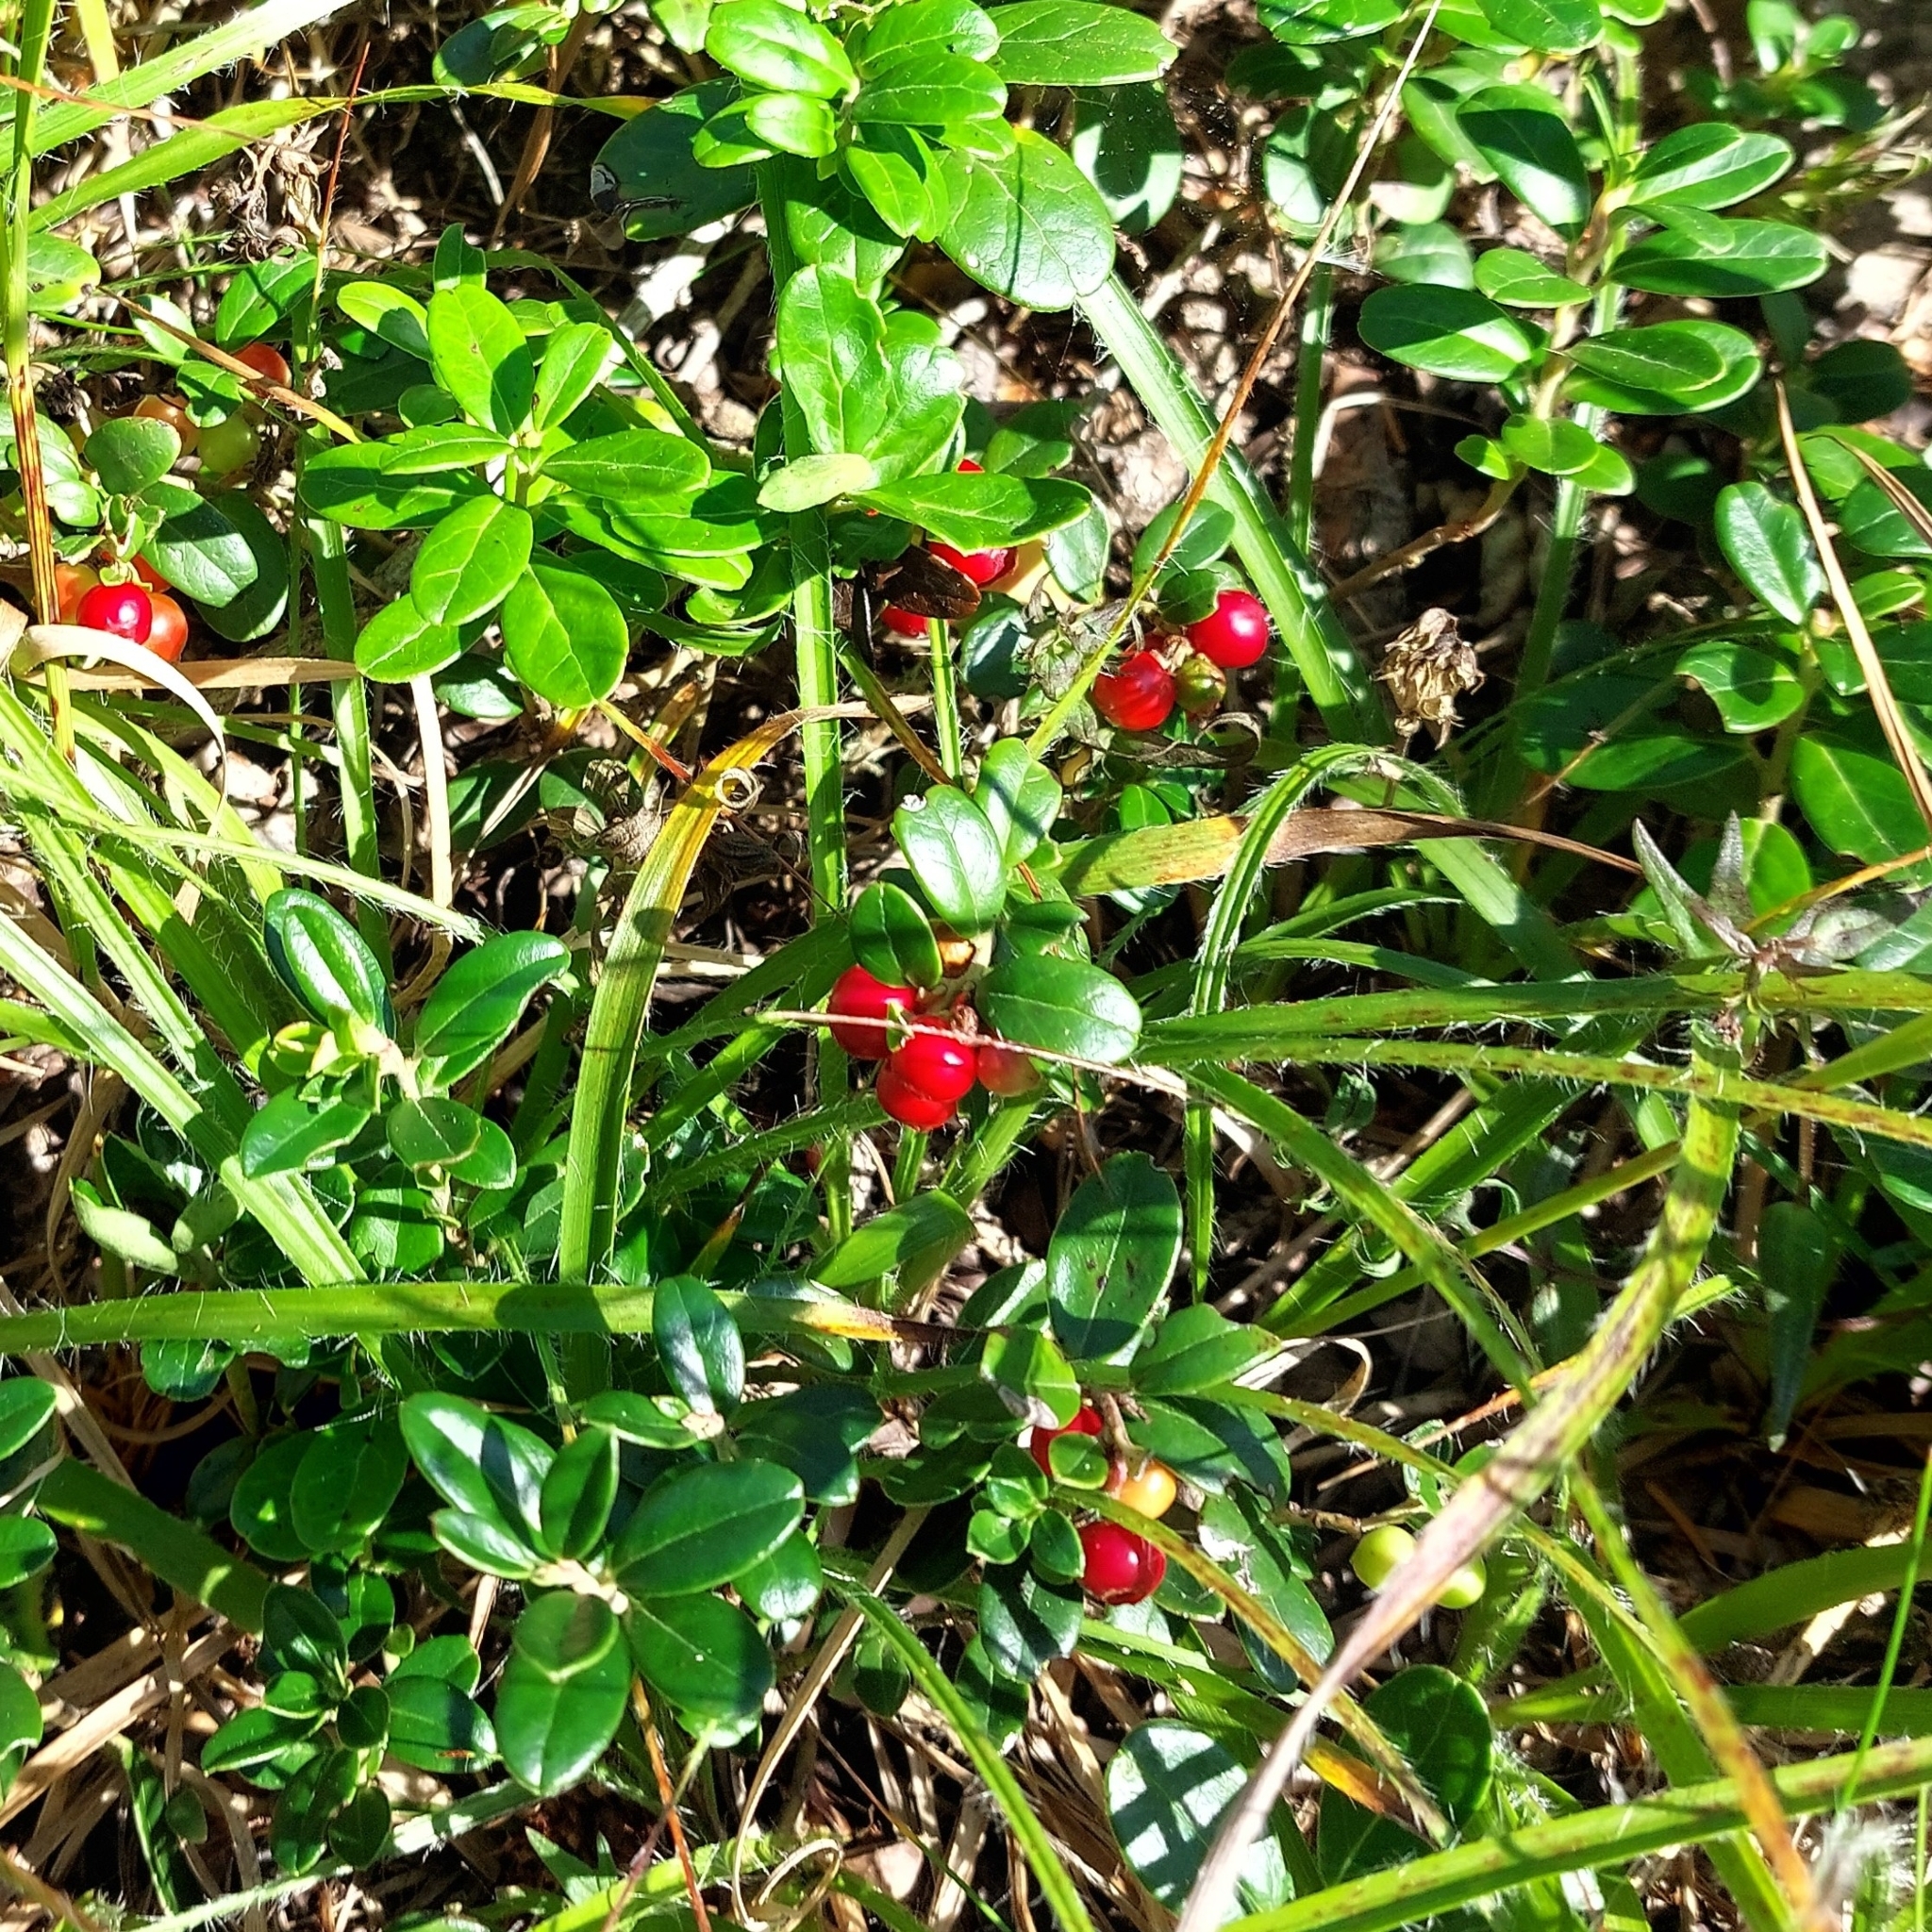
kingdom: Plantae
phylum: Tracheophyta
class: Magnoliopsida
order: Ericales
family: Ericaceae
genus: Vaccinium
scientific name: Vaccinium vitis-idaea
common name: Cowberry
